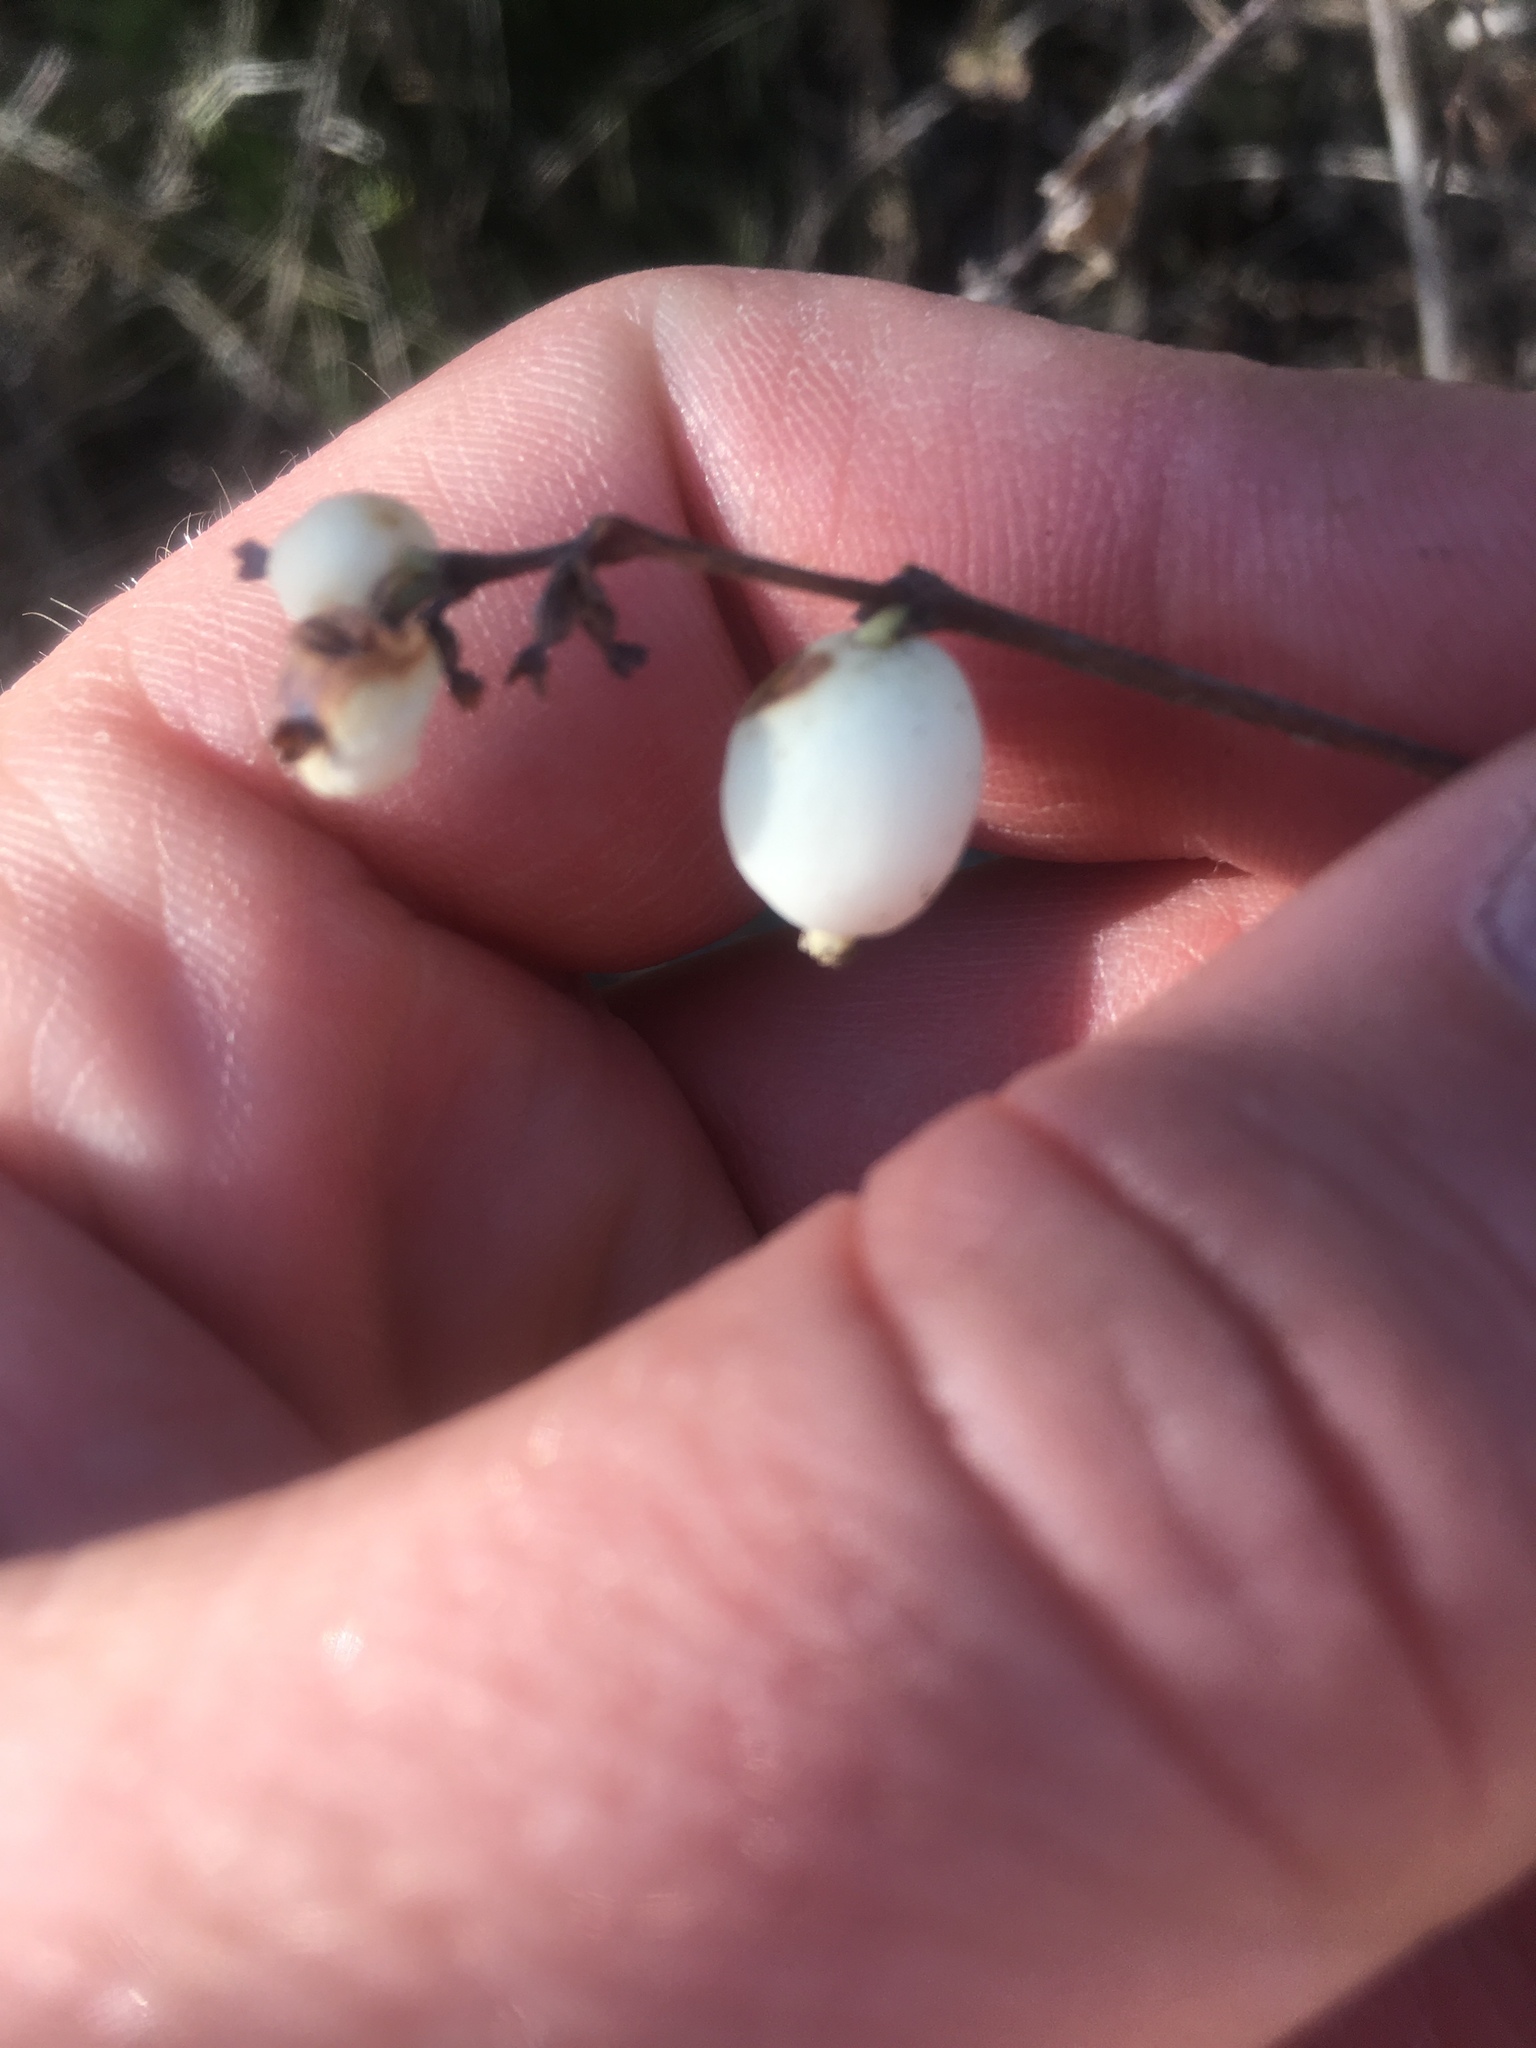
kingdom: Plantae
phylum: Tracheophyta
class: Magnoliopsida
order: Dipsacales
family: Caprifoliaceae
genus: Symphoricarpos
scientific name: Symphoricarpos albus
